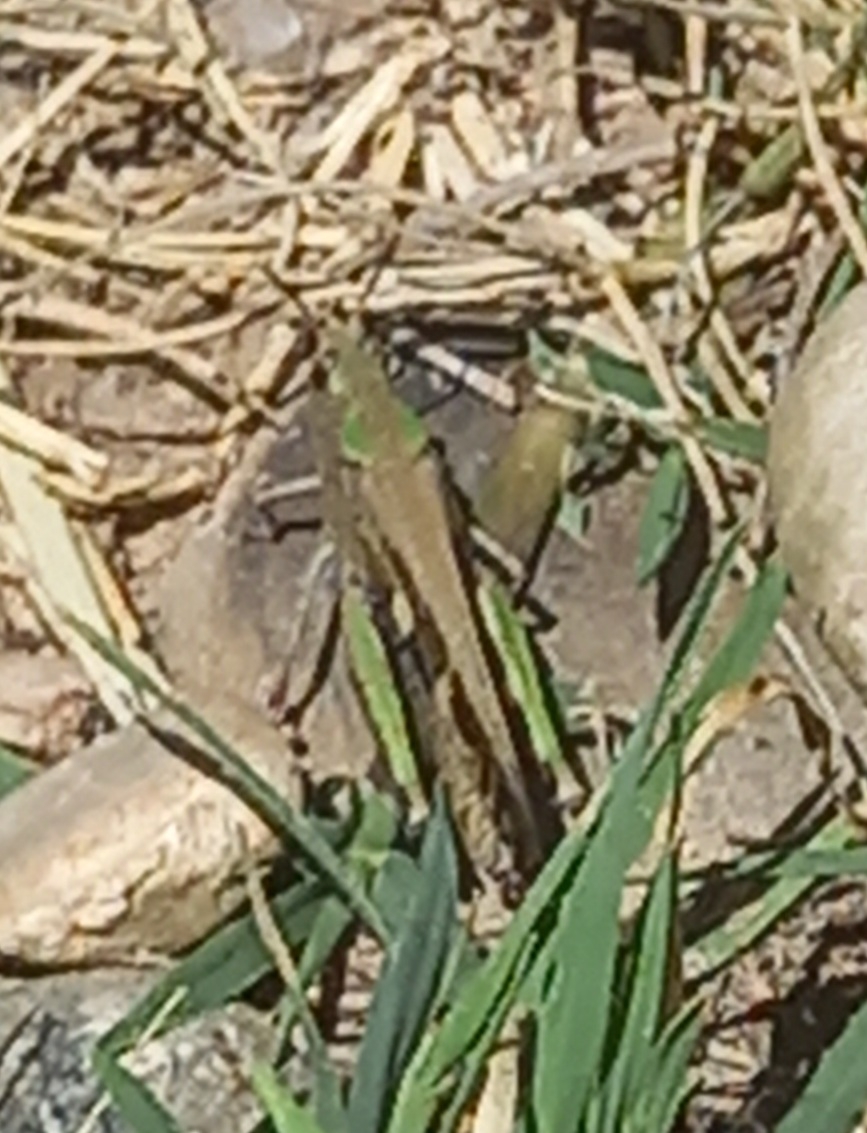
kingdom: Animalia
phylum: Arthropoda
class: Insecta
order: Orthoptera
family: Acrididae
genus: Aiolopus
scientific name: Aiolopus strepens
